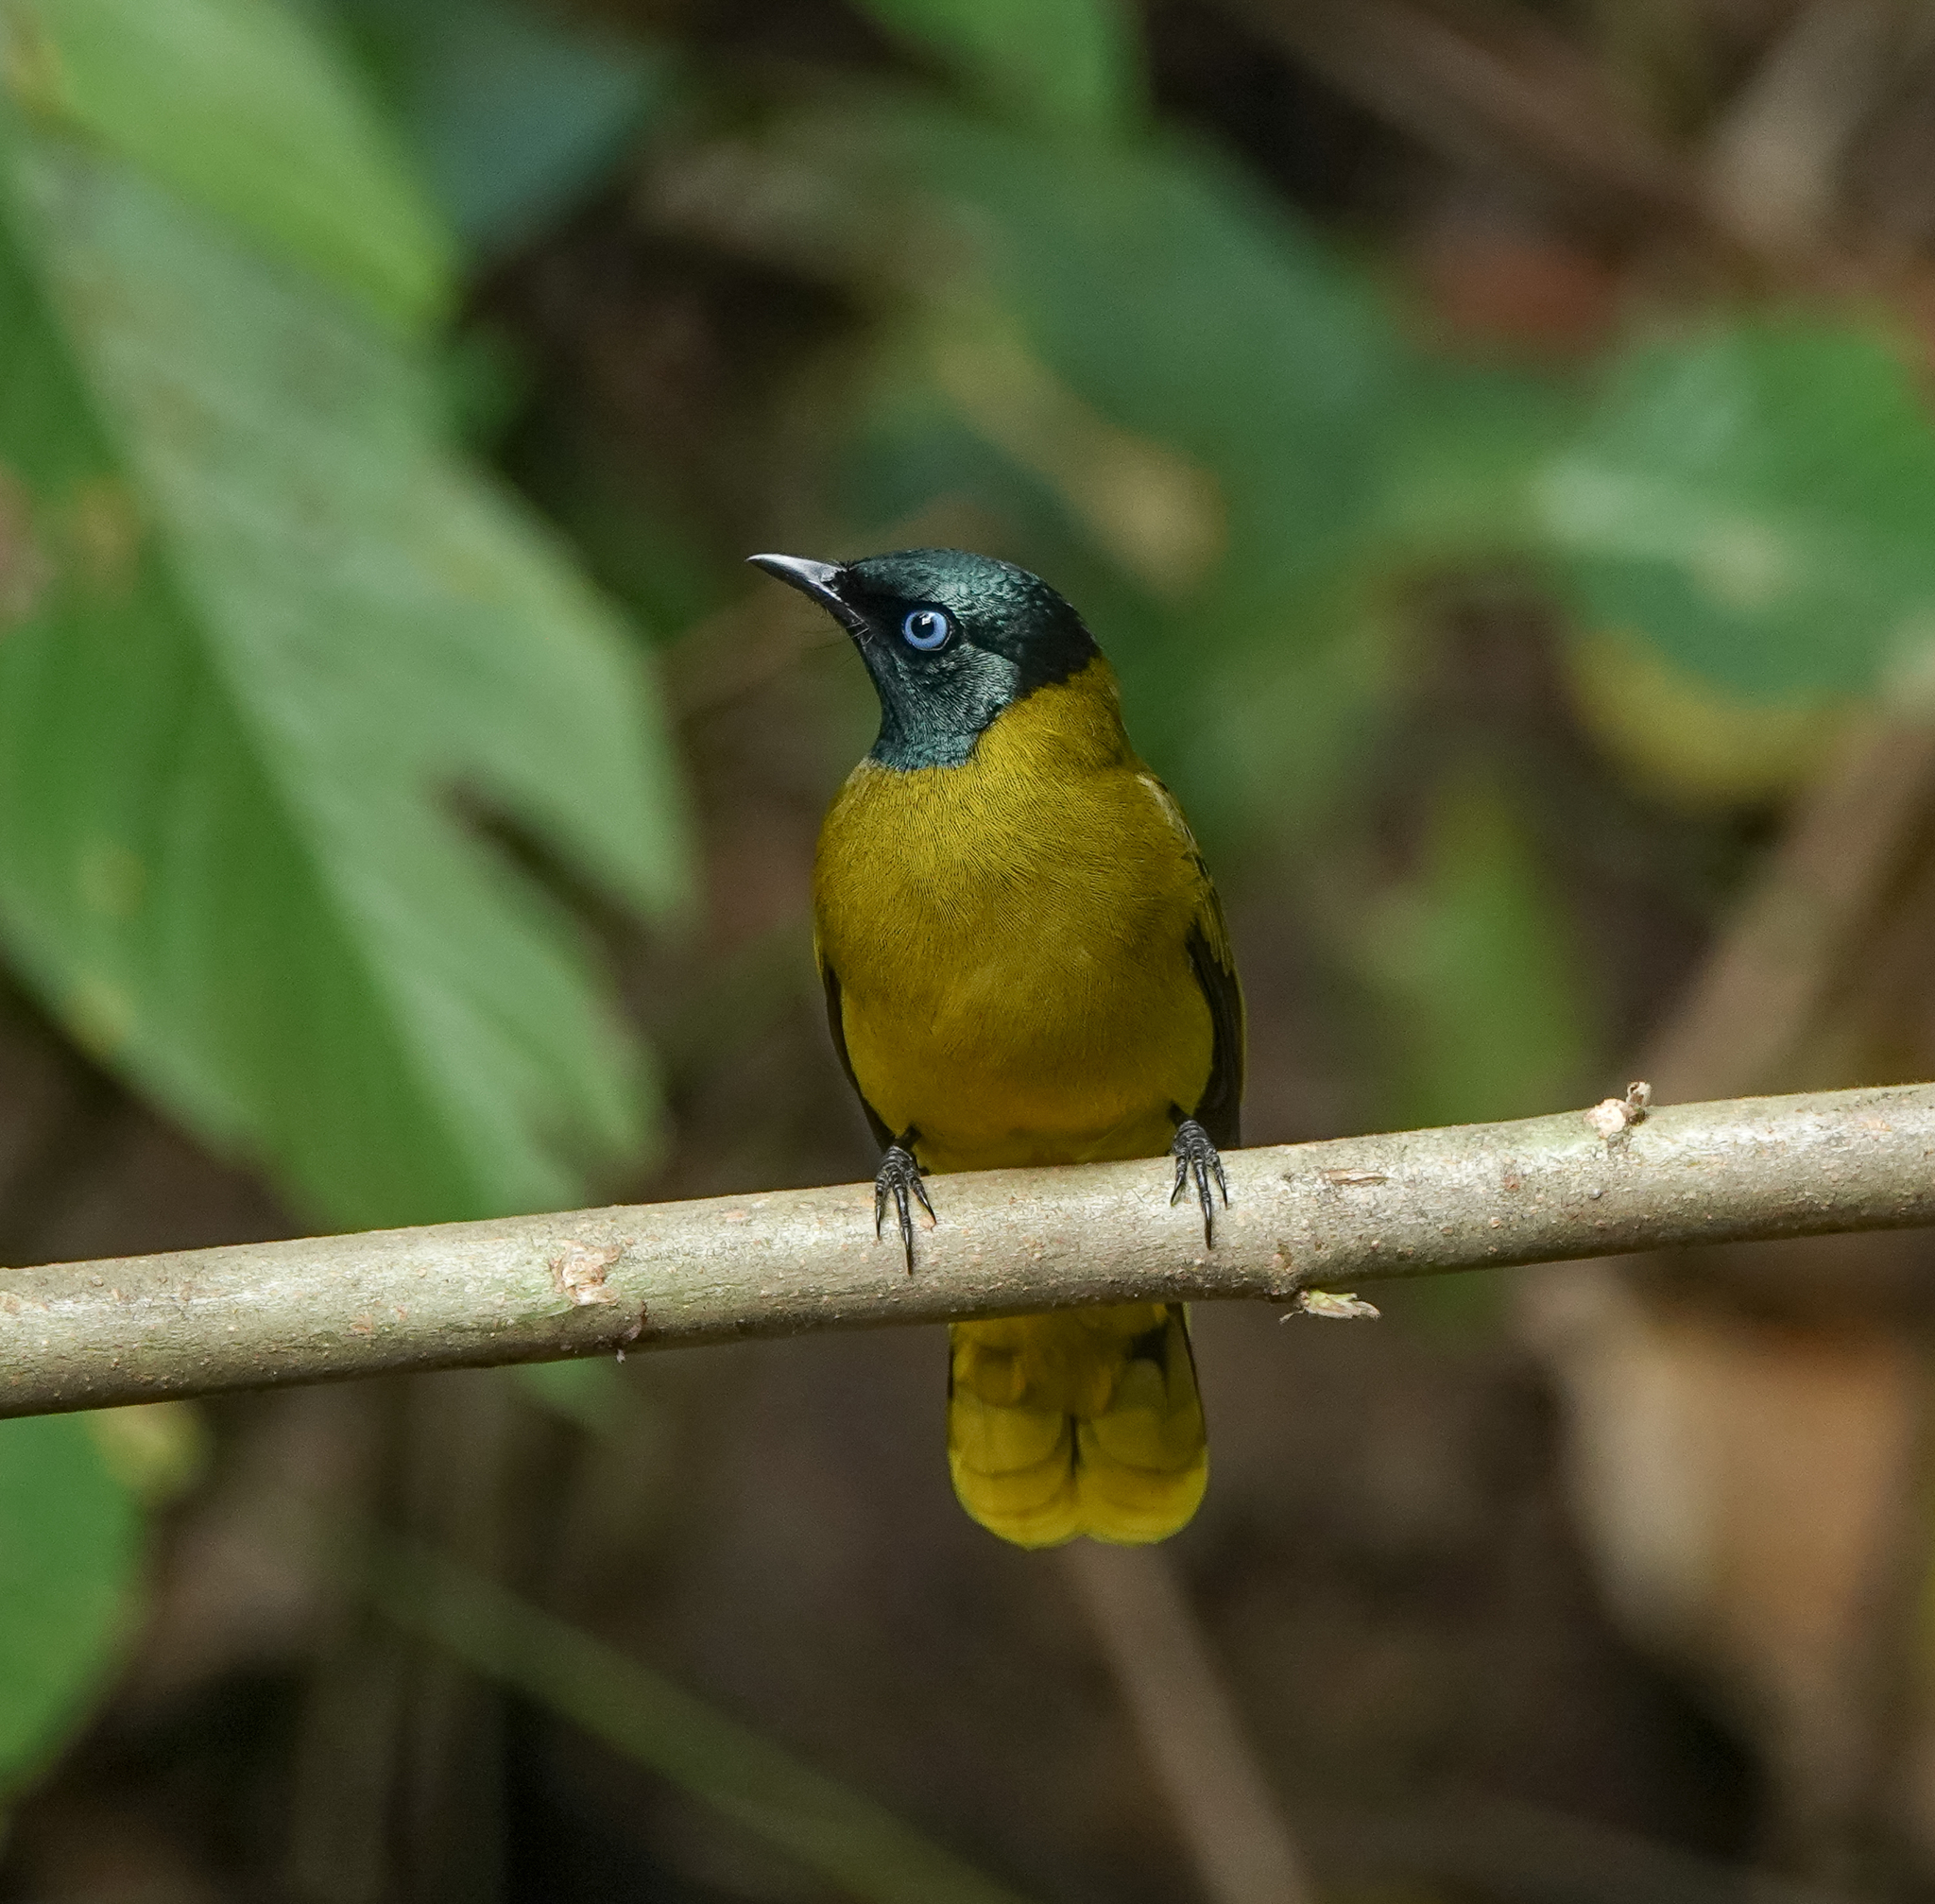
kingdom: Animalia
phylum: Chordata
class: Aves
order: Passeriformes
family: Pycnonotidae
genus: Microtarsus
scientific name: Microtarsus
